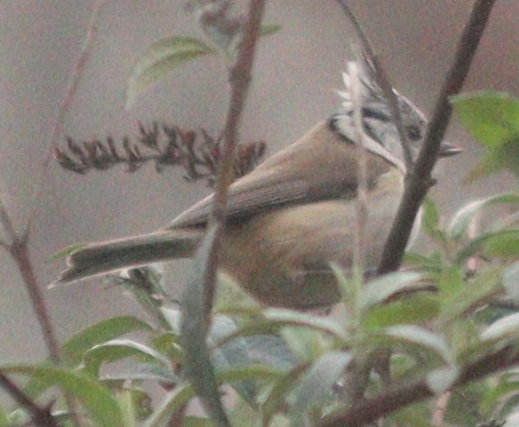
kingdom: Animalia
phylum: Chordata
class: Aves
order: Passeriformes
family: Paridae
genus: Lophophanes
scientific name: Lophophanes cristatus
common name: European crested tit
